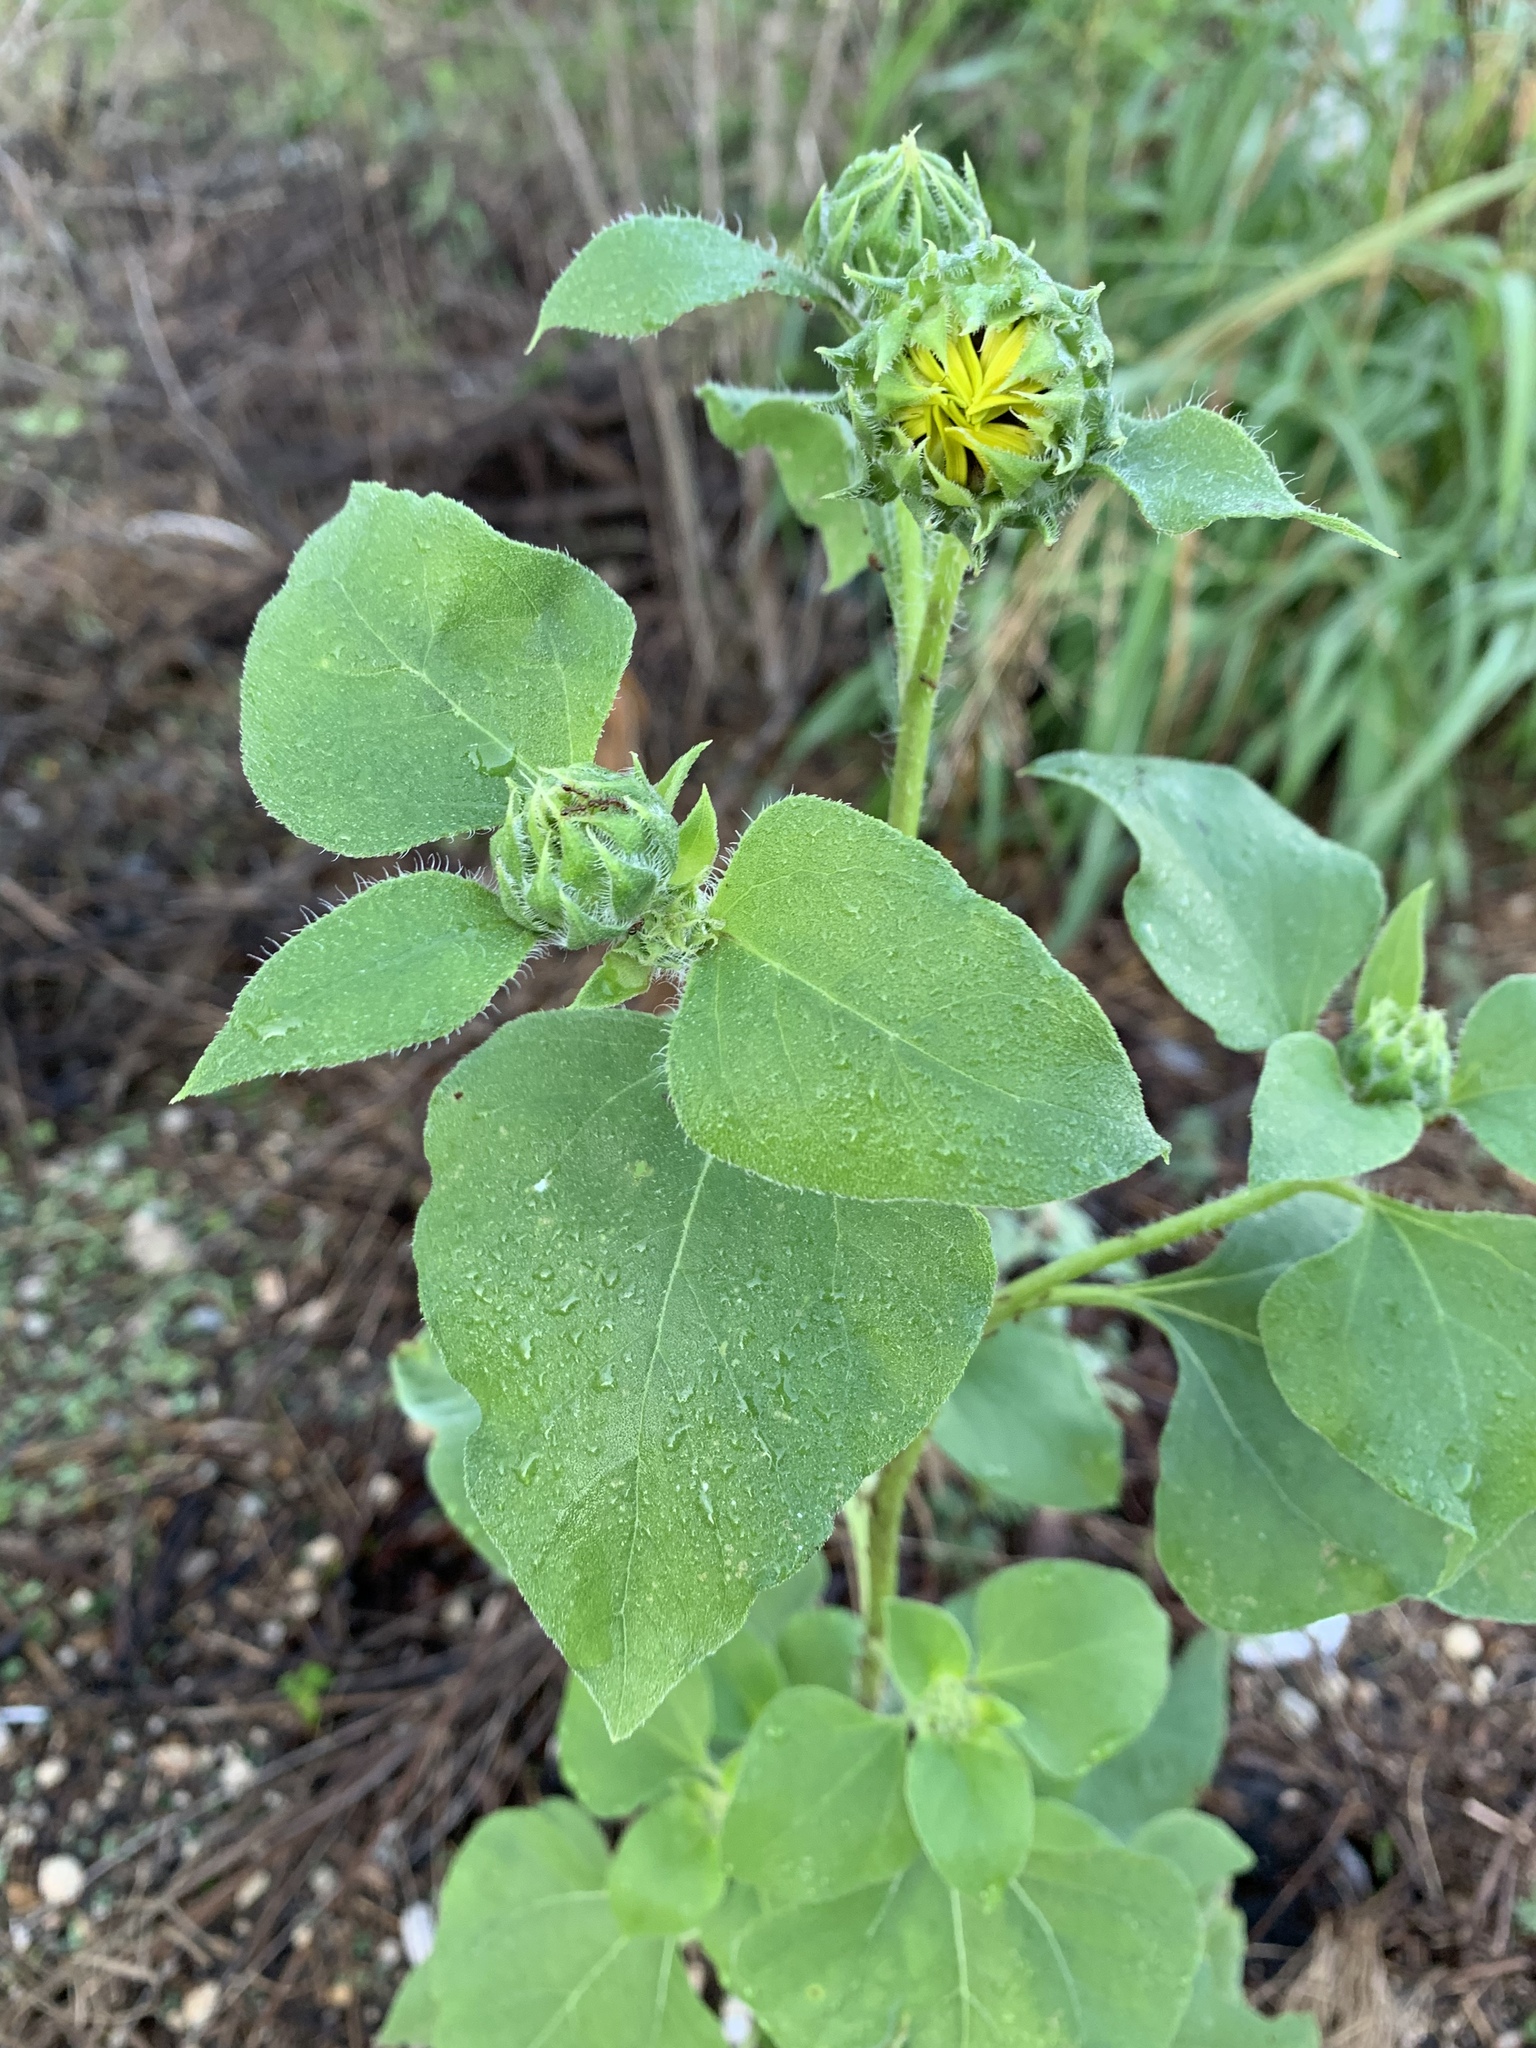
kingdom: Plantae
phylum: Tracheophyta
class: Magnoliopsida
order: Asterales
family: Asteraceae
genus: Helianthus
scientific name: Helianthus annuus
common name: Sunflower
